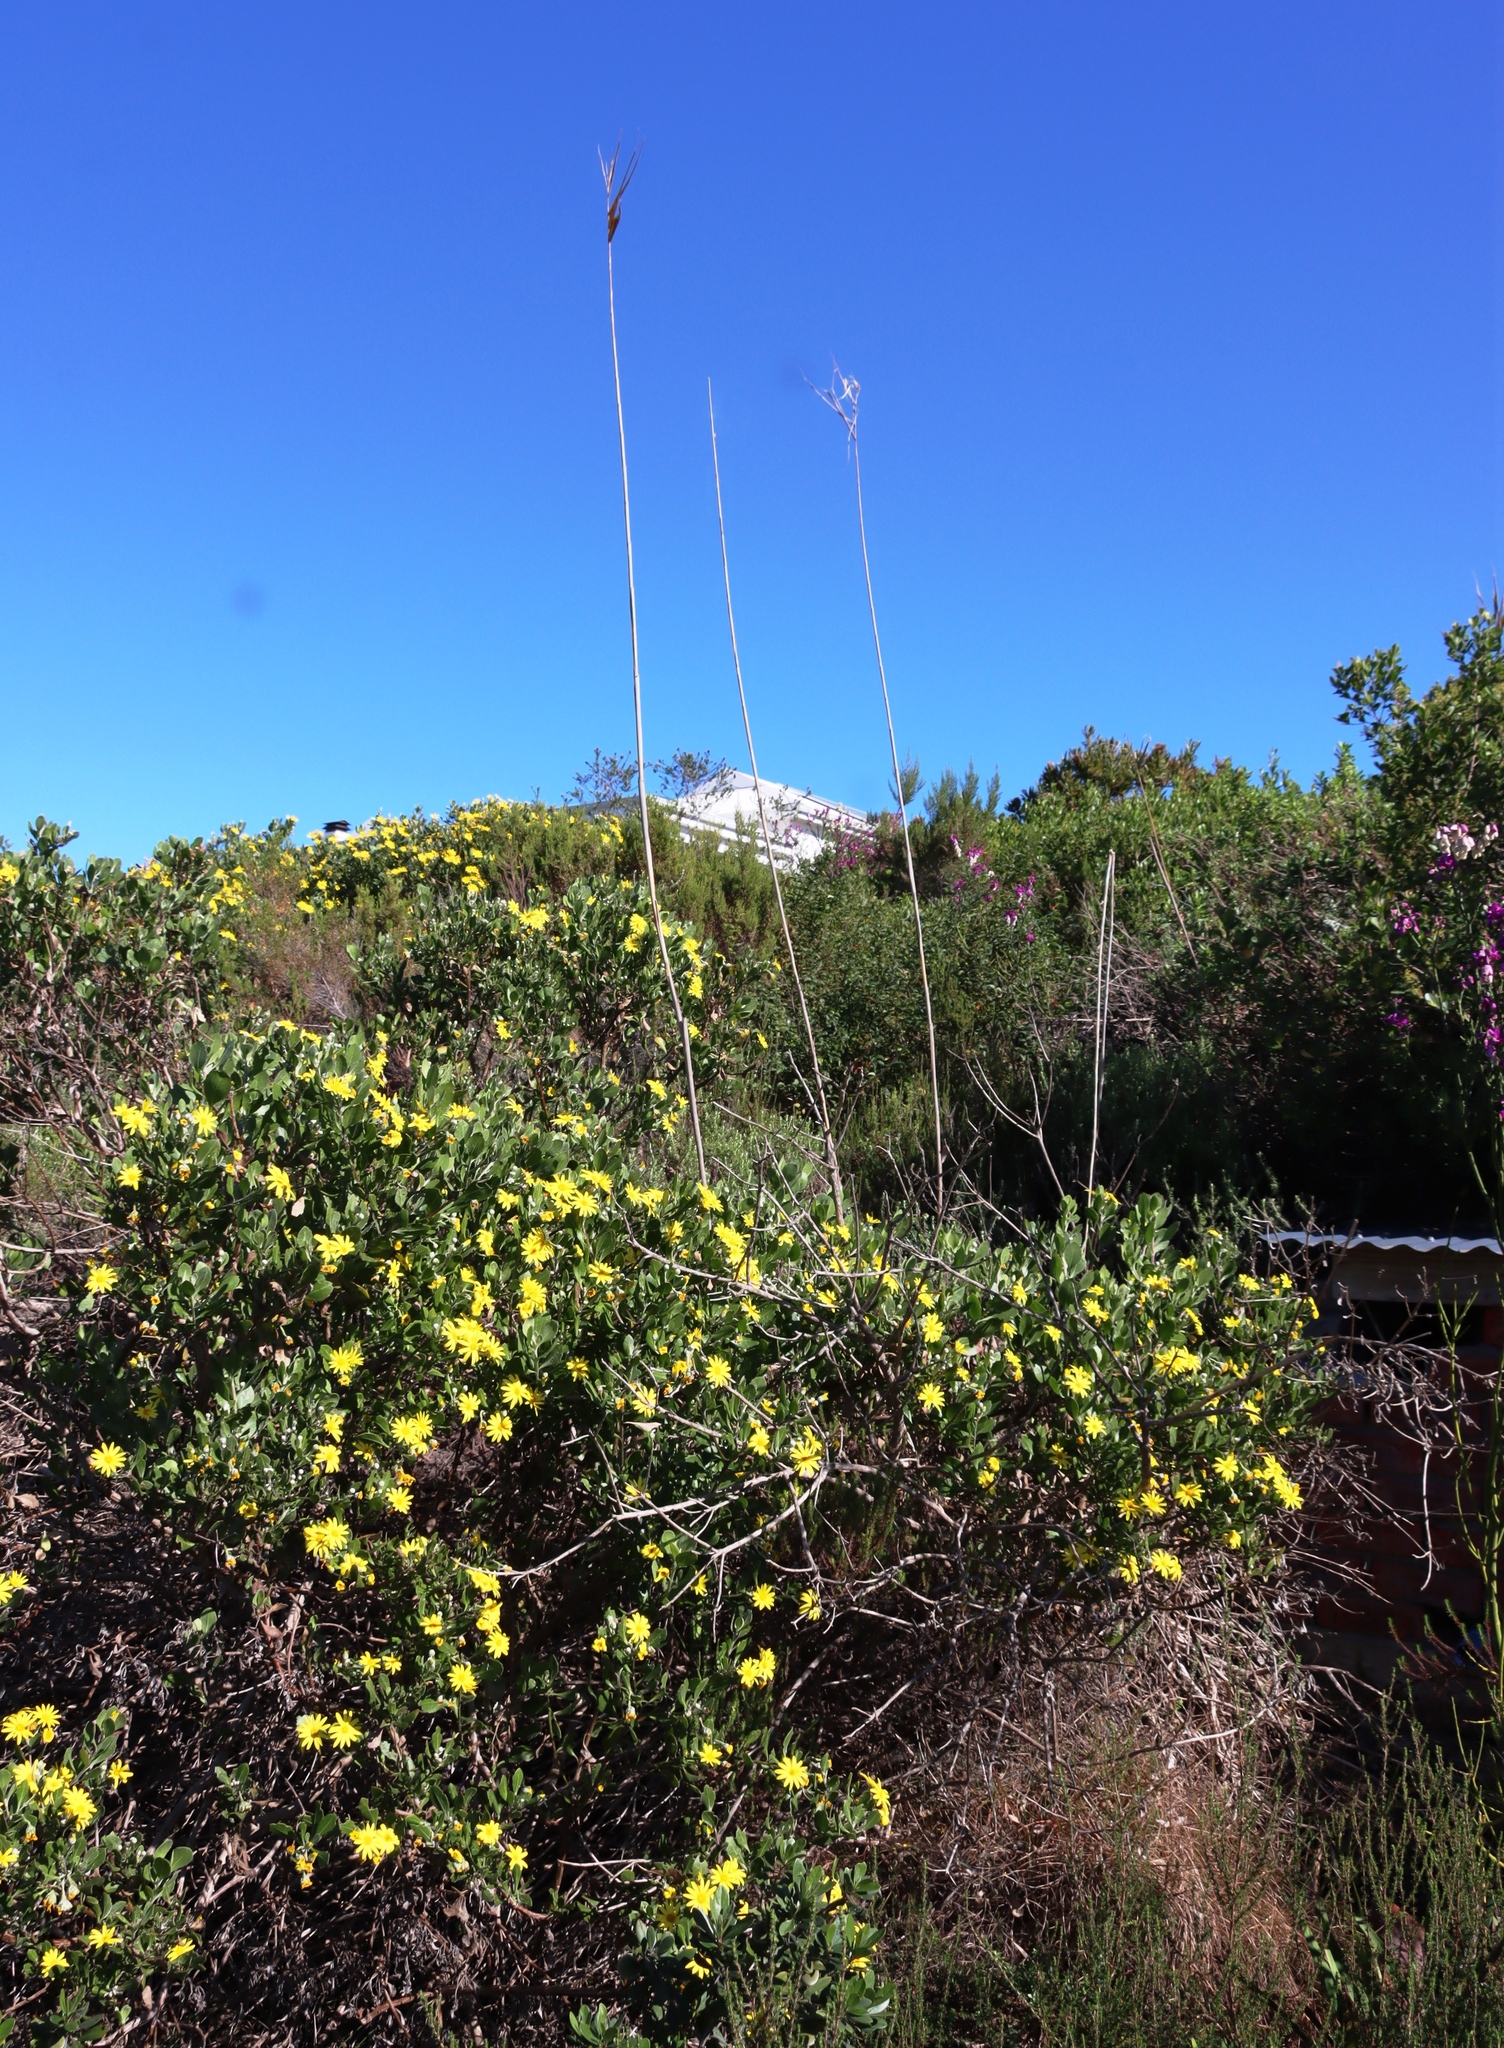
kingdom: Plantae
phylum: Tracheophyta
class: Liliopsida
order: Poales
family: Poaceae
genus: Phragmites
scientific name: Phragmites australis
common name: Common reed
